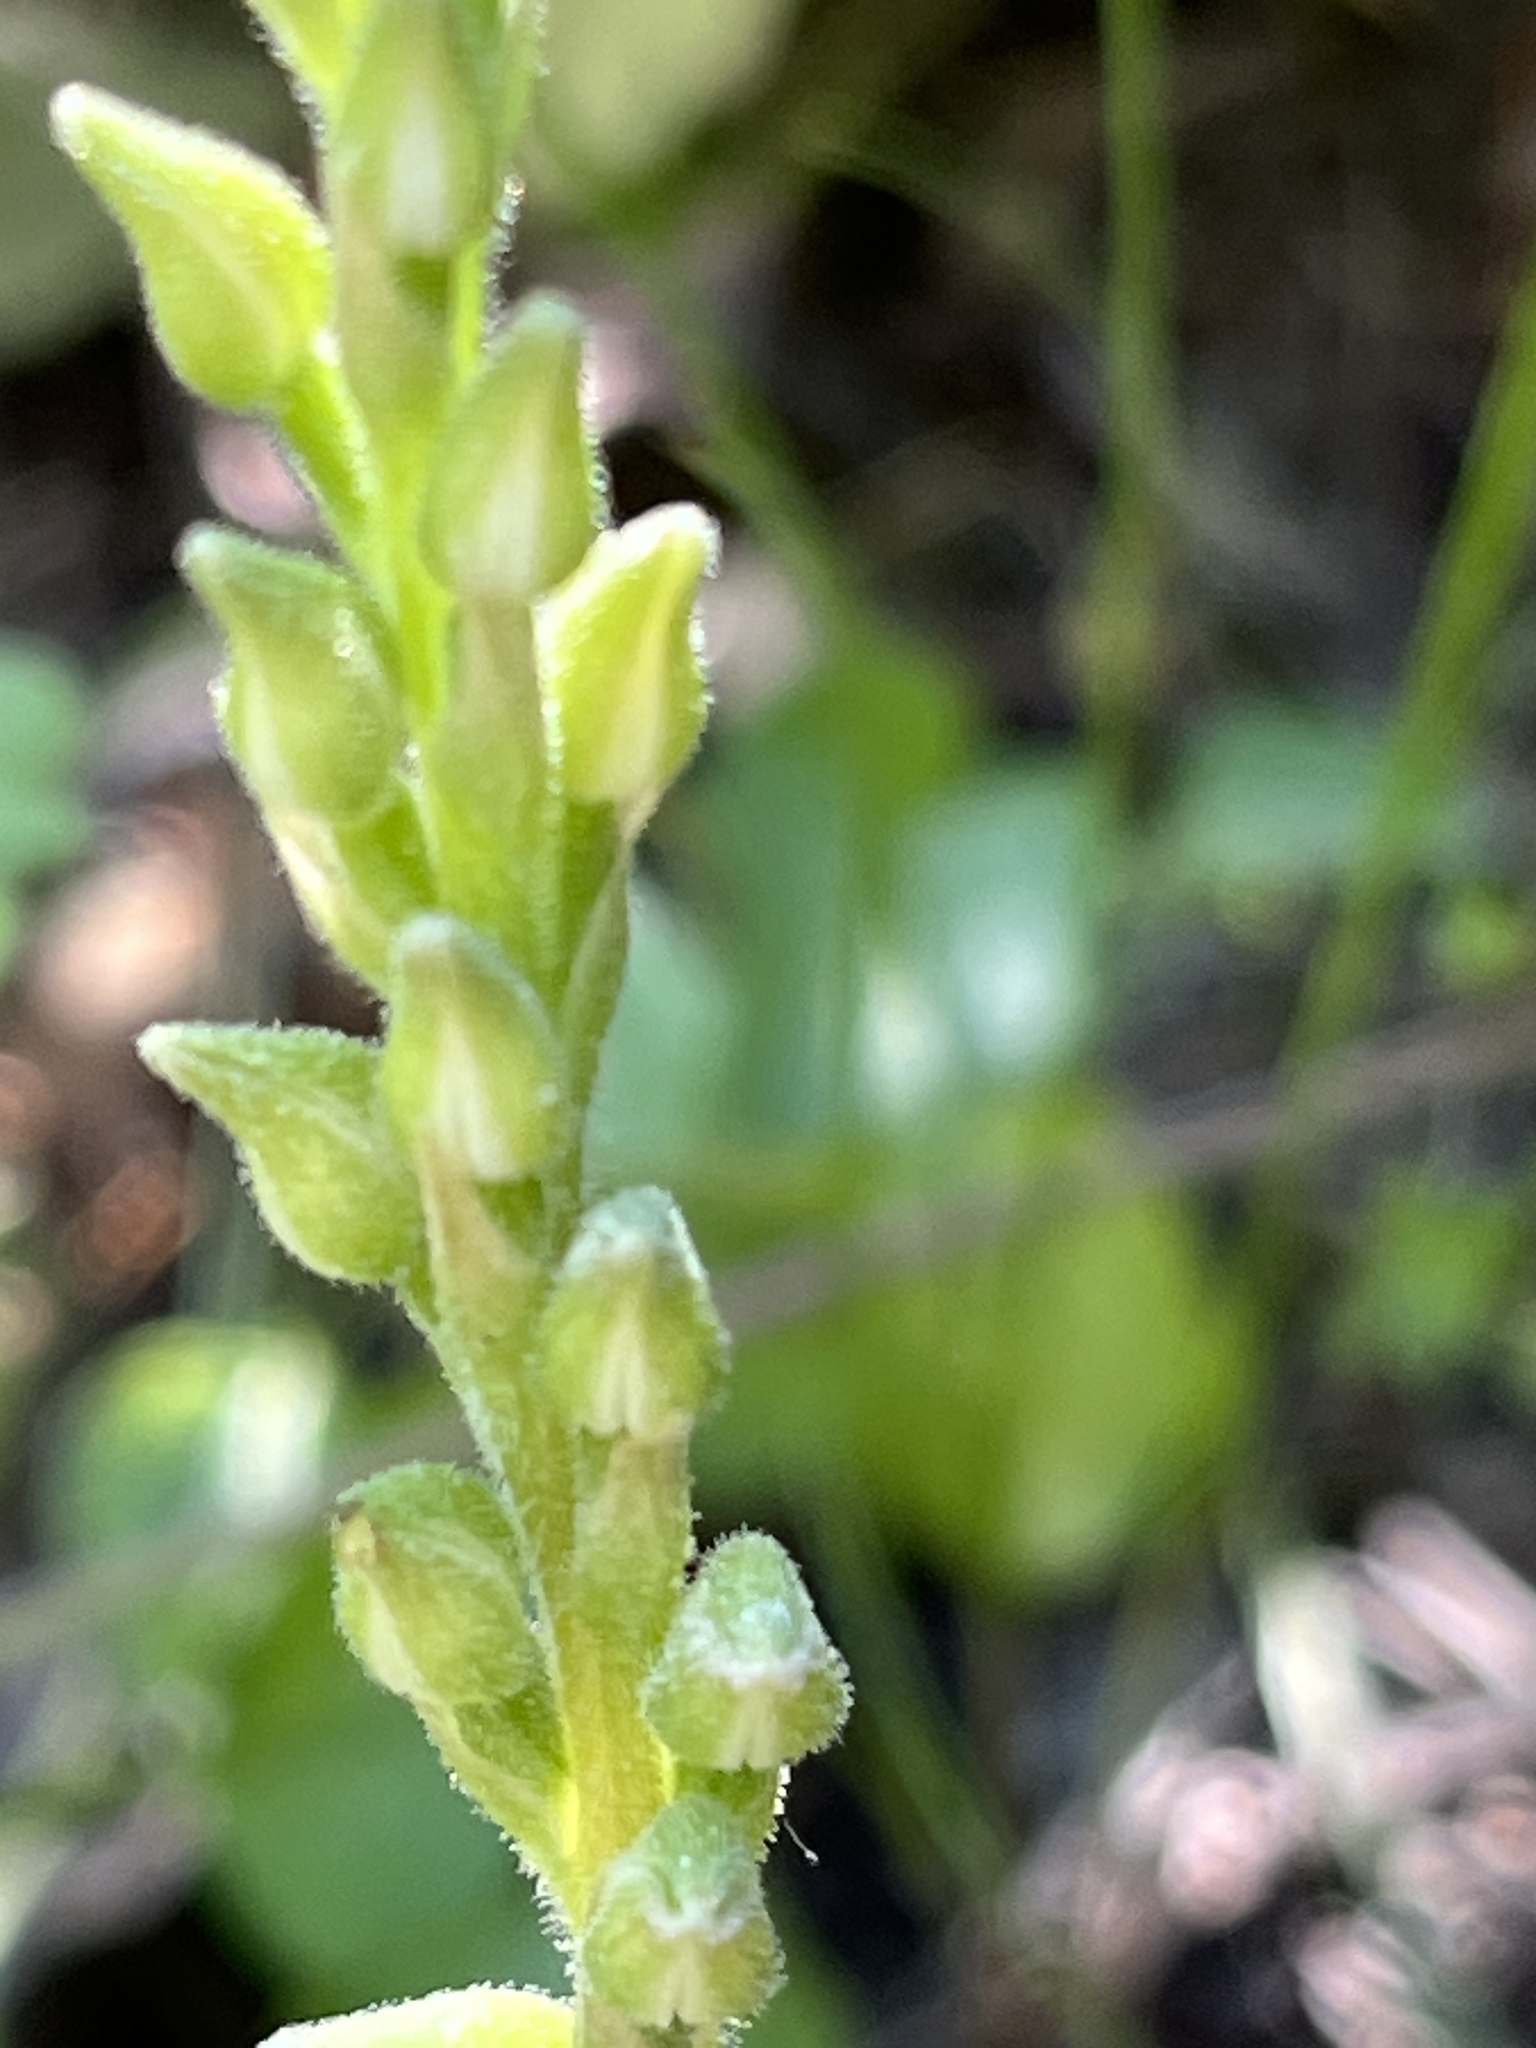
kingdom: Plantae
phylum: Tracheophyta
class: Liliopsida
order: Asparagales
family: Orchidaceae
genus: Goodyera
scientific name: Goodyera oblongifolia
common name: Giant rattlesnake-plantain
